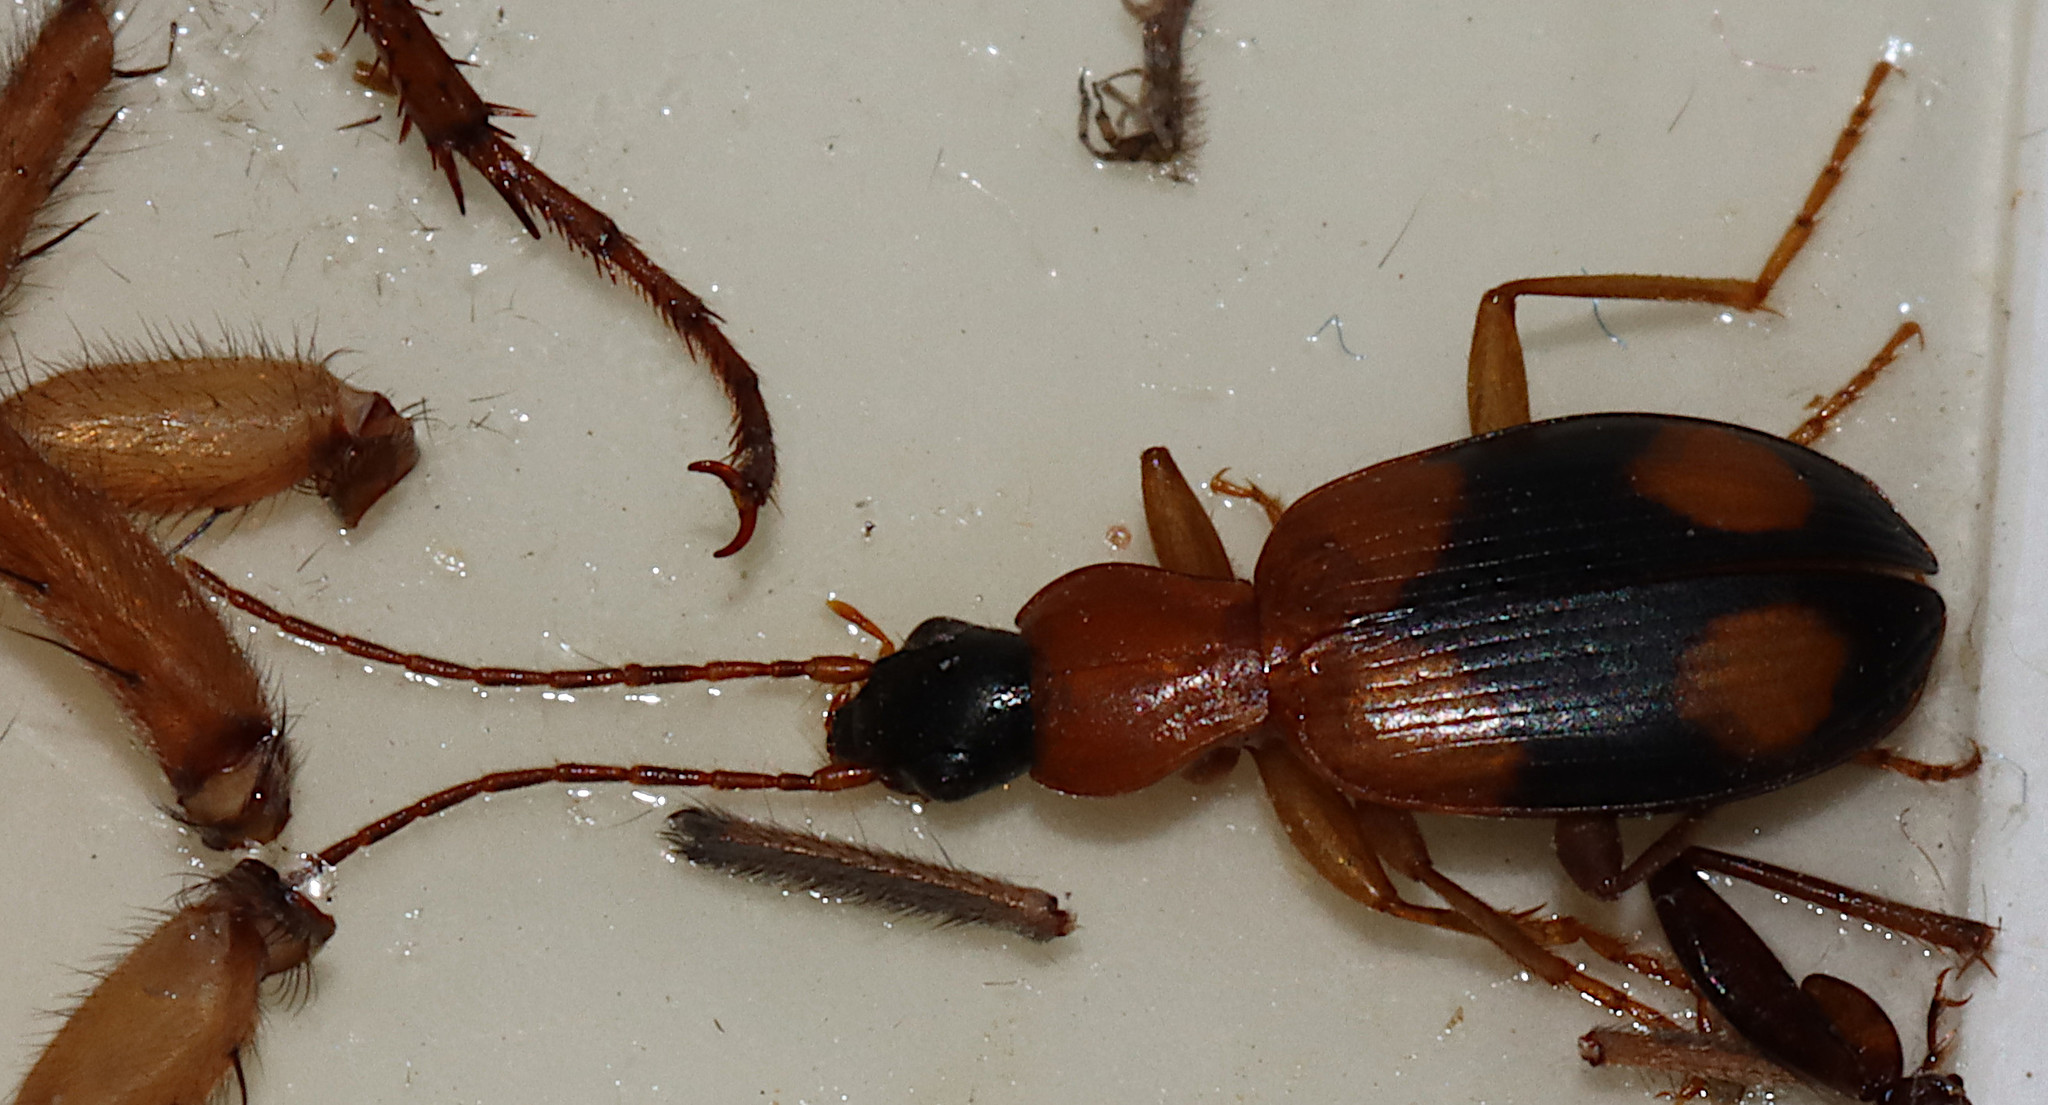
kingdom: Animalia
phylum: Arthropoda
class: Insecta
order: Coleoptera
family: Carabidae
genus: Agonum
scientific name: Agonum quadrimaculatum
